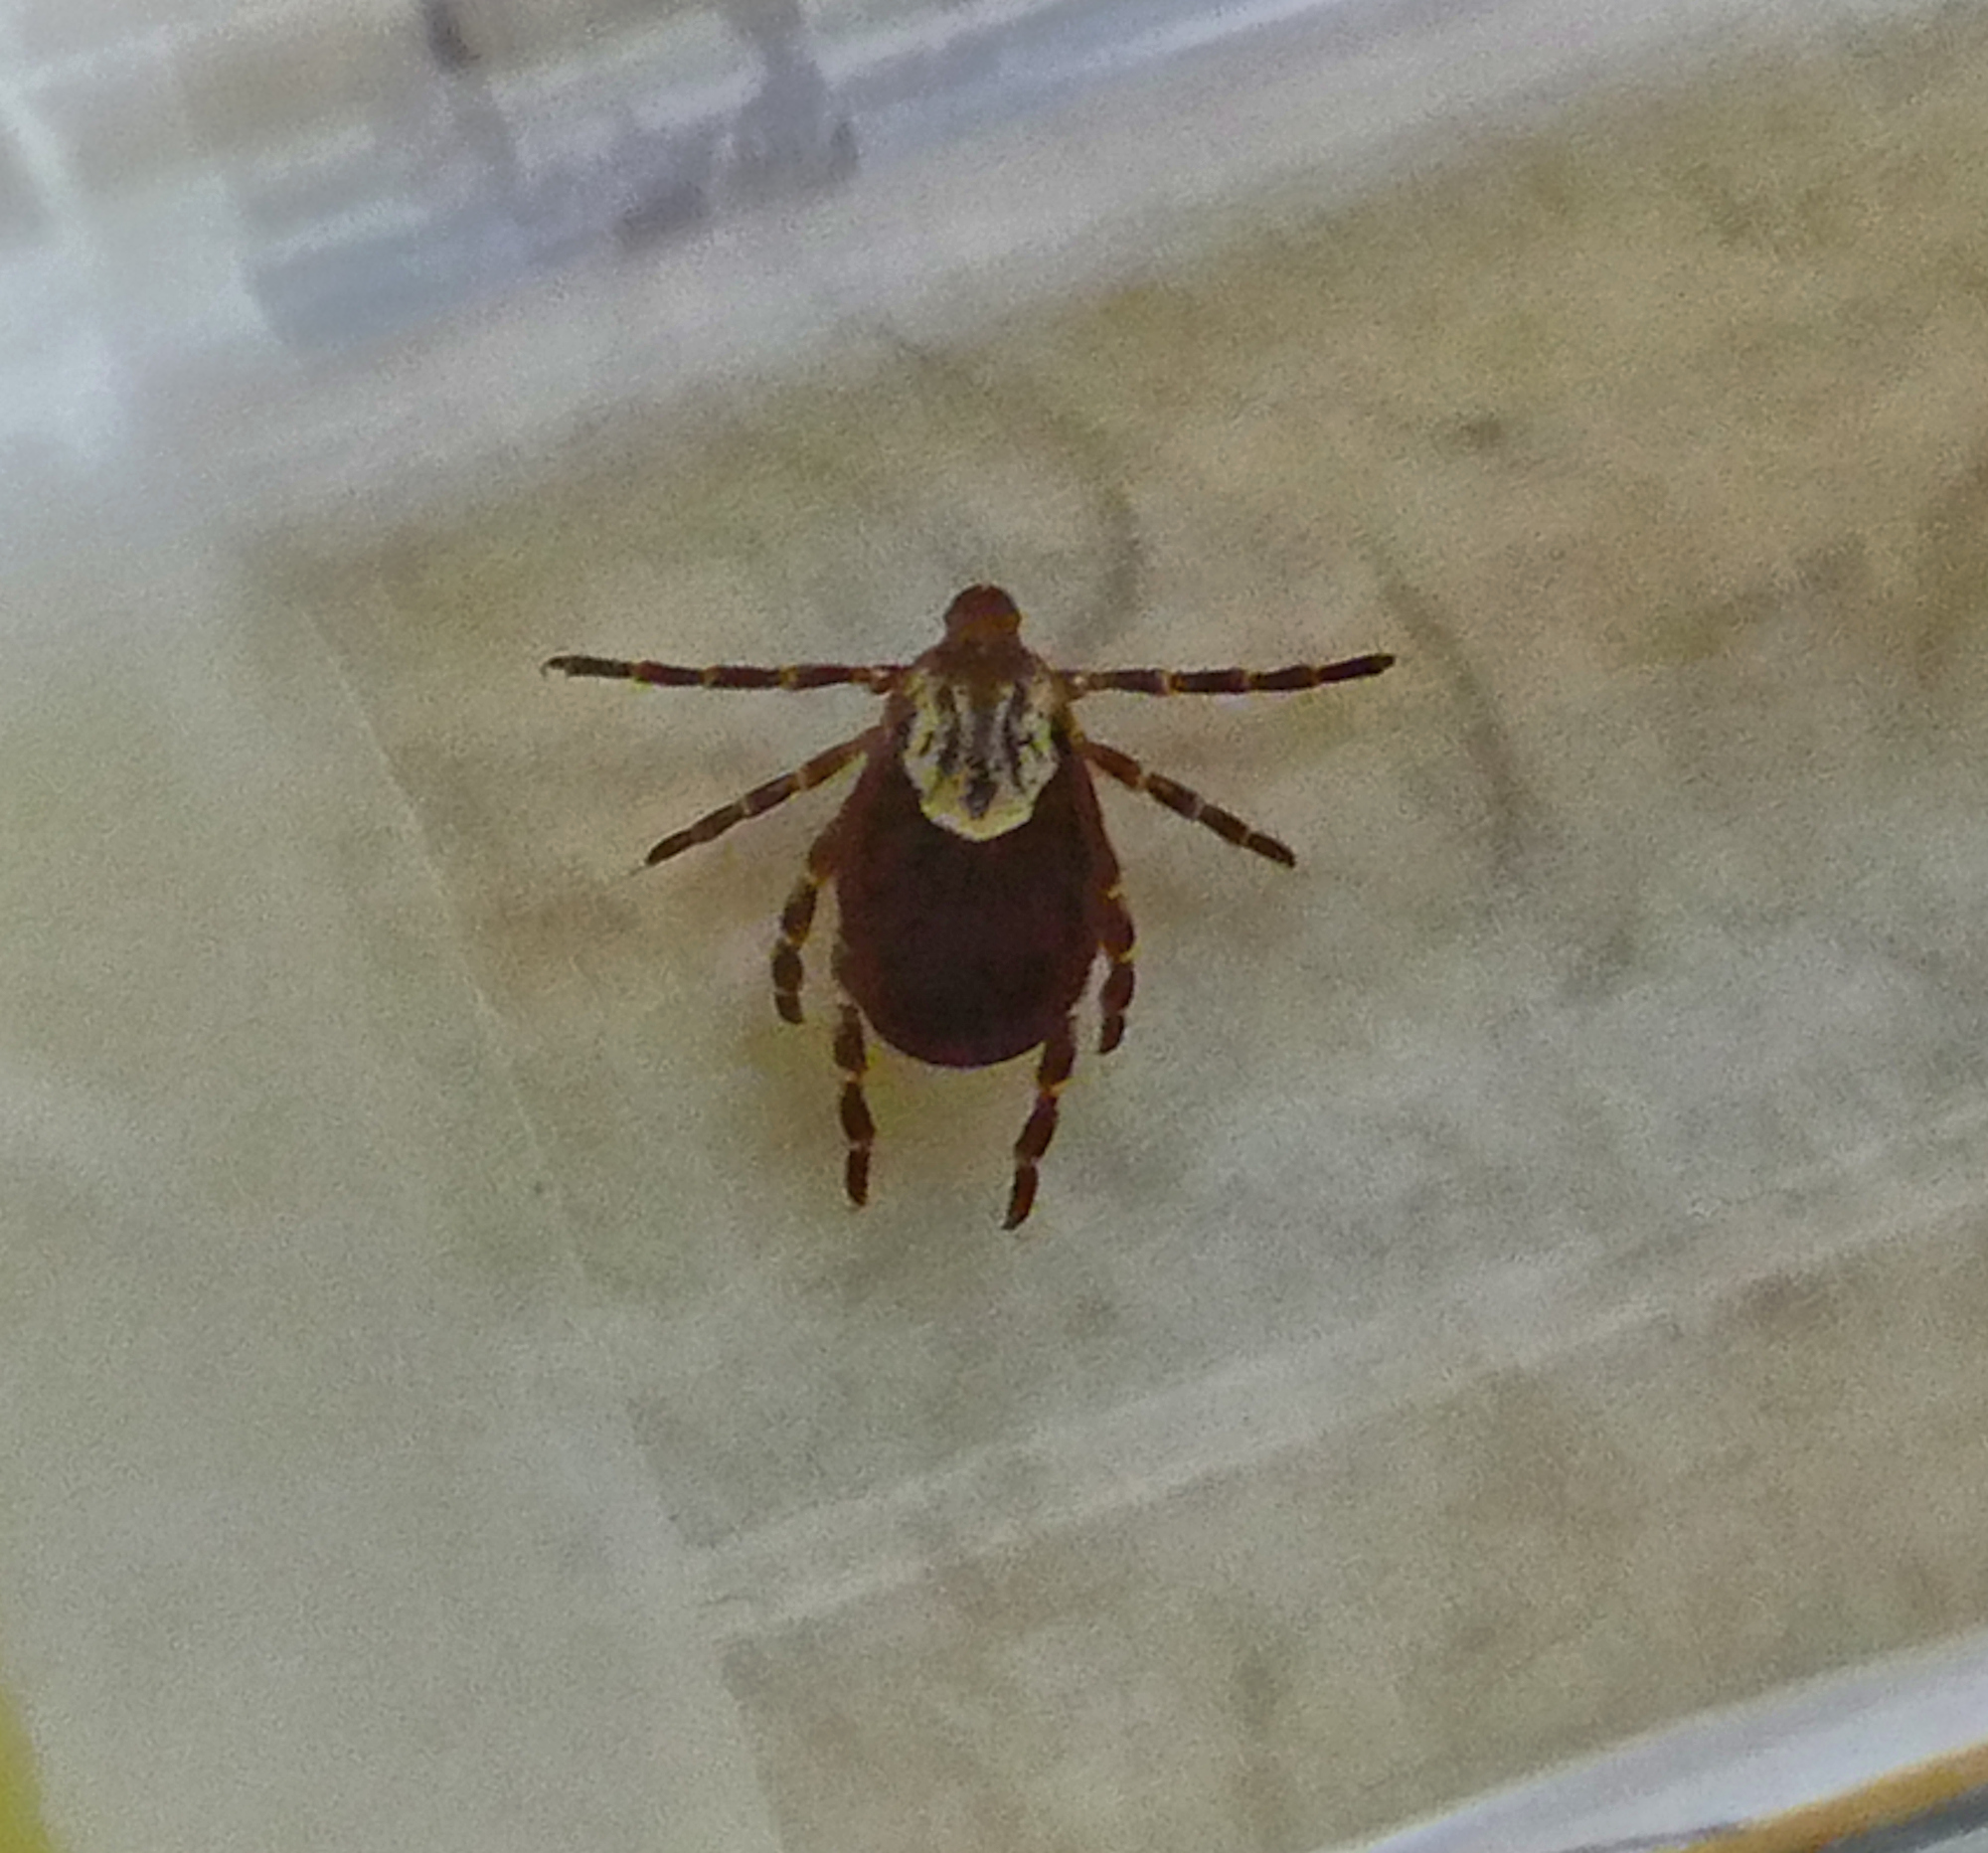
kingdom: Animalia
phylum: Arthropoda
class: Arachnida
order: Ixodida
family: Ixodidae
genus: Dermacentor
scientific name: Dermacentor variabilis
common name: American dog tick
